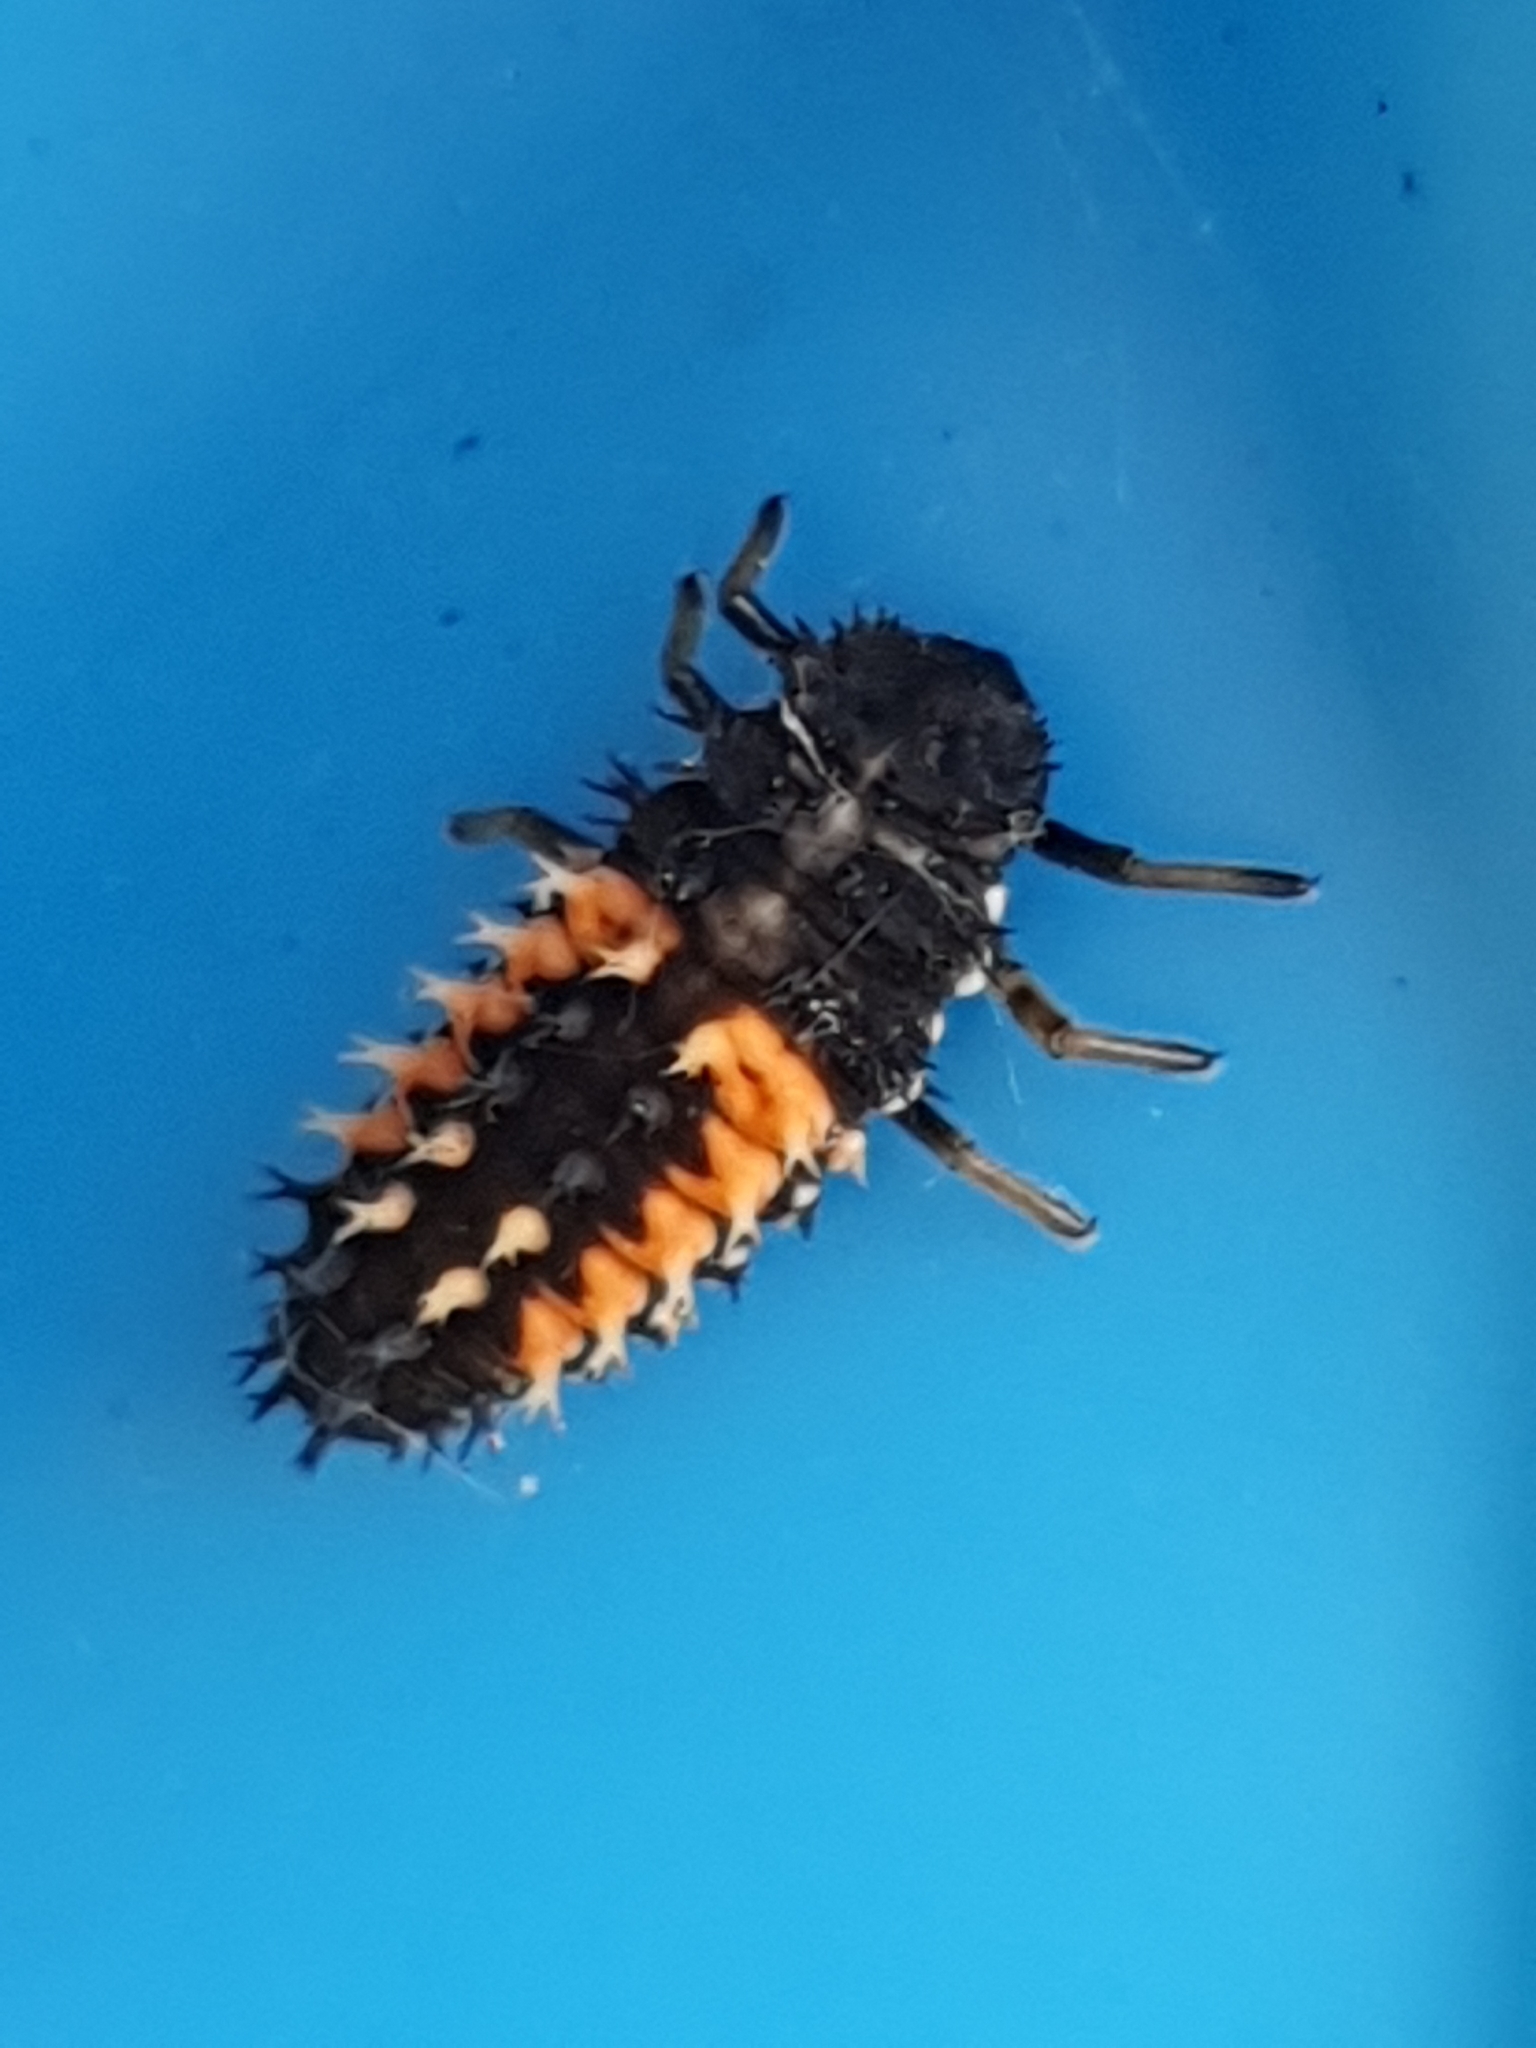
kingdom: Animalia
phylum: Arthropoda
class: Insecta
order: Coleoptera
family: Coccinellidae
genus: Harmonia
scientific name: Harmonia axyridis
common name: Harlequin ladybird
